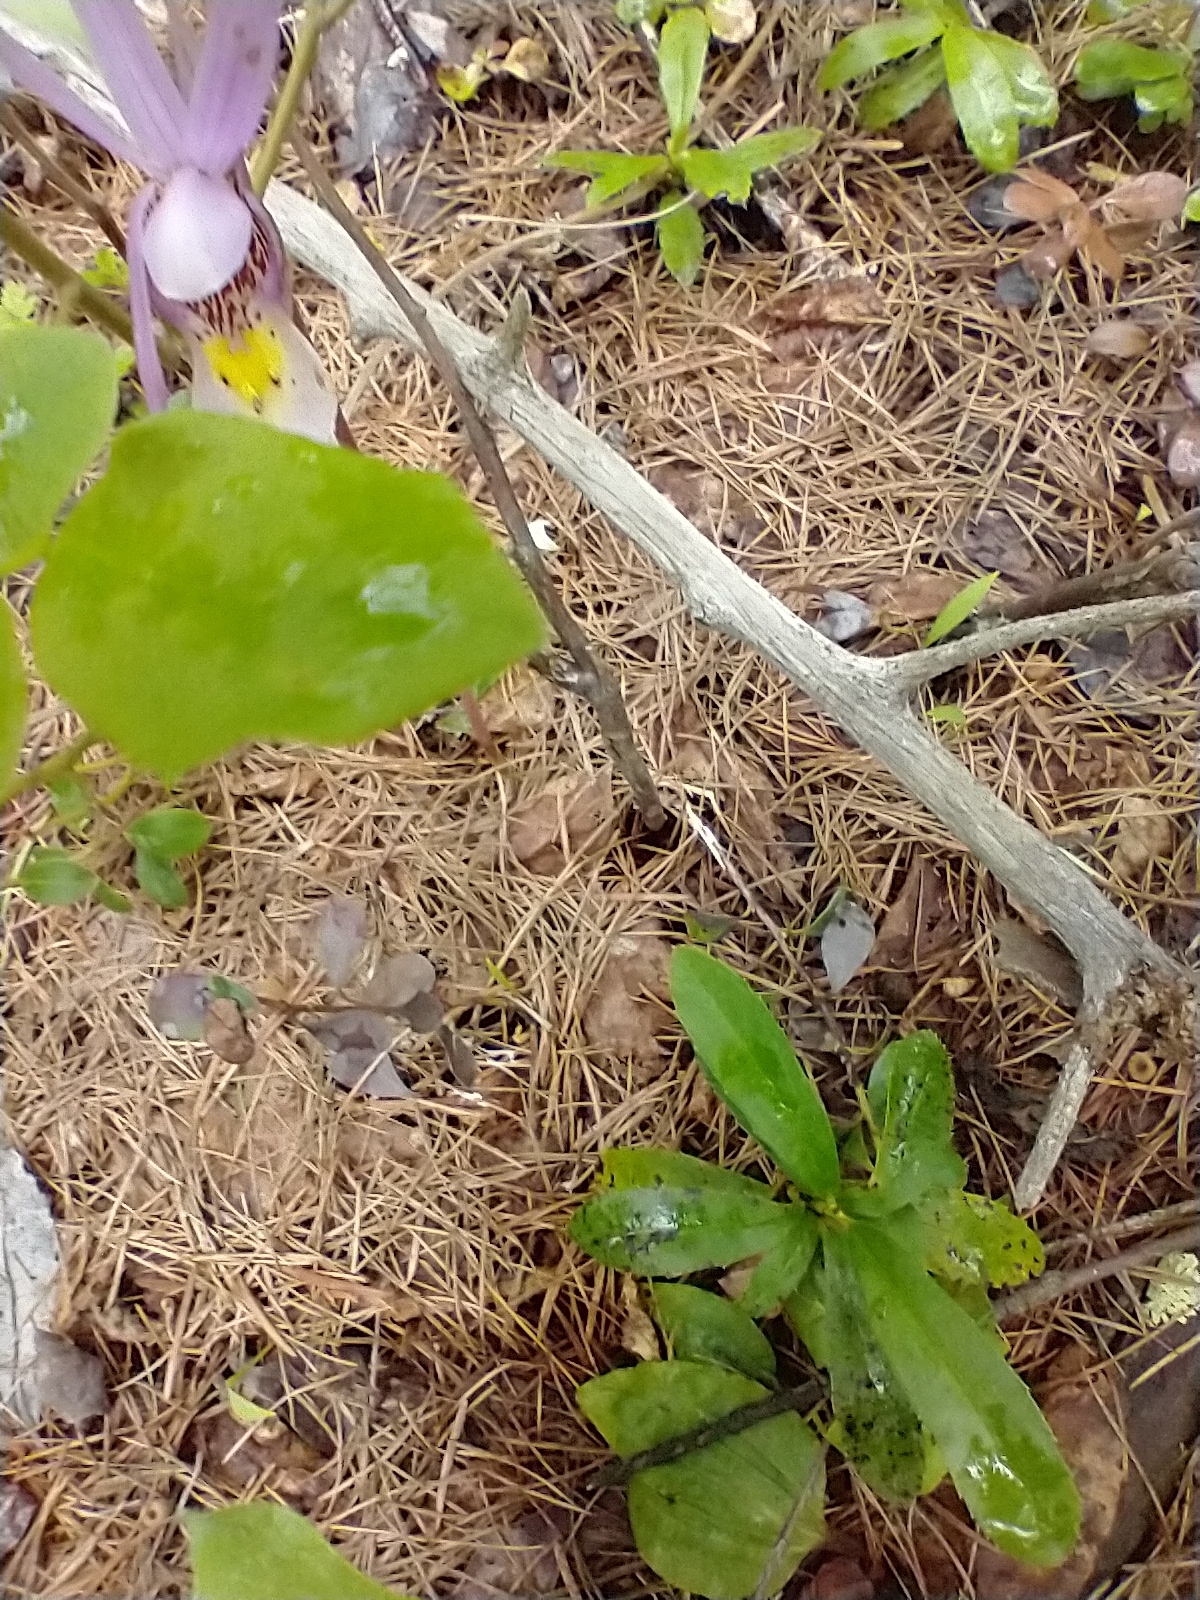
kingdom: Plantae
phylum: Tracheophyta
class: Liliopsida
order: Asparagales
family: Orchidaceae
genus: Calypso
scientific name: Calypso bulbosa
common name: Calypso
